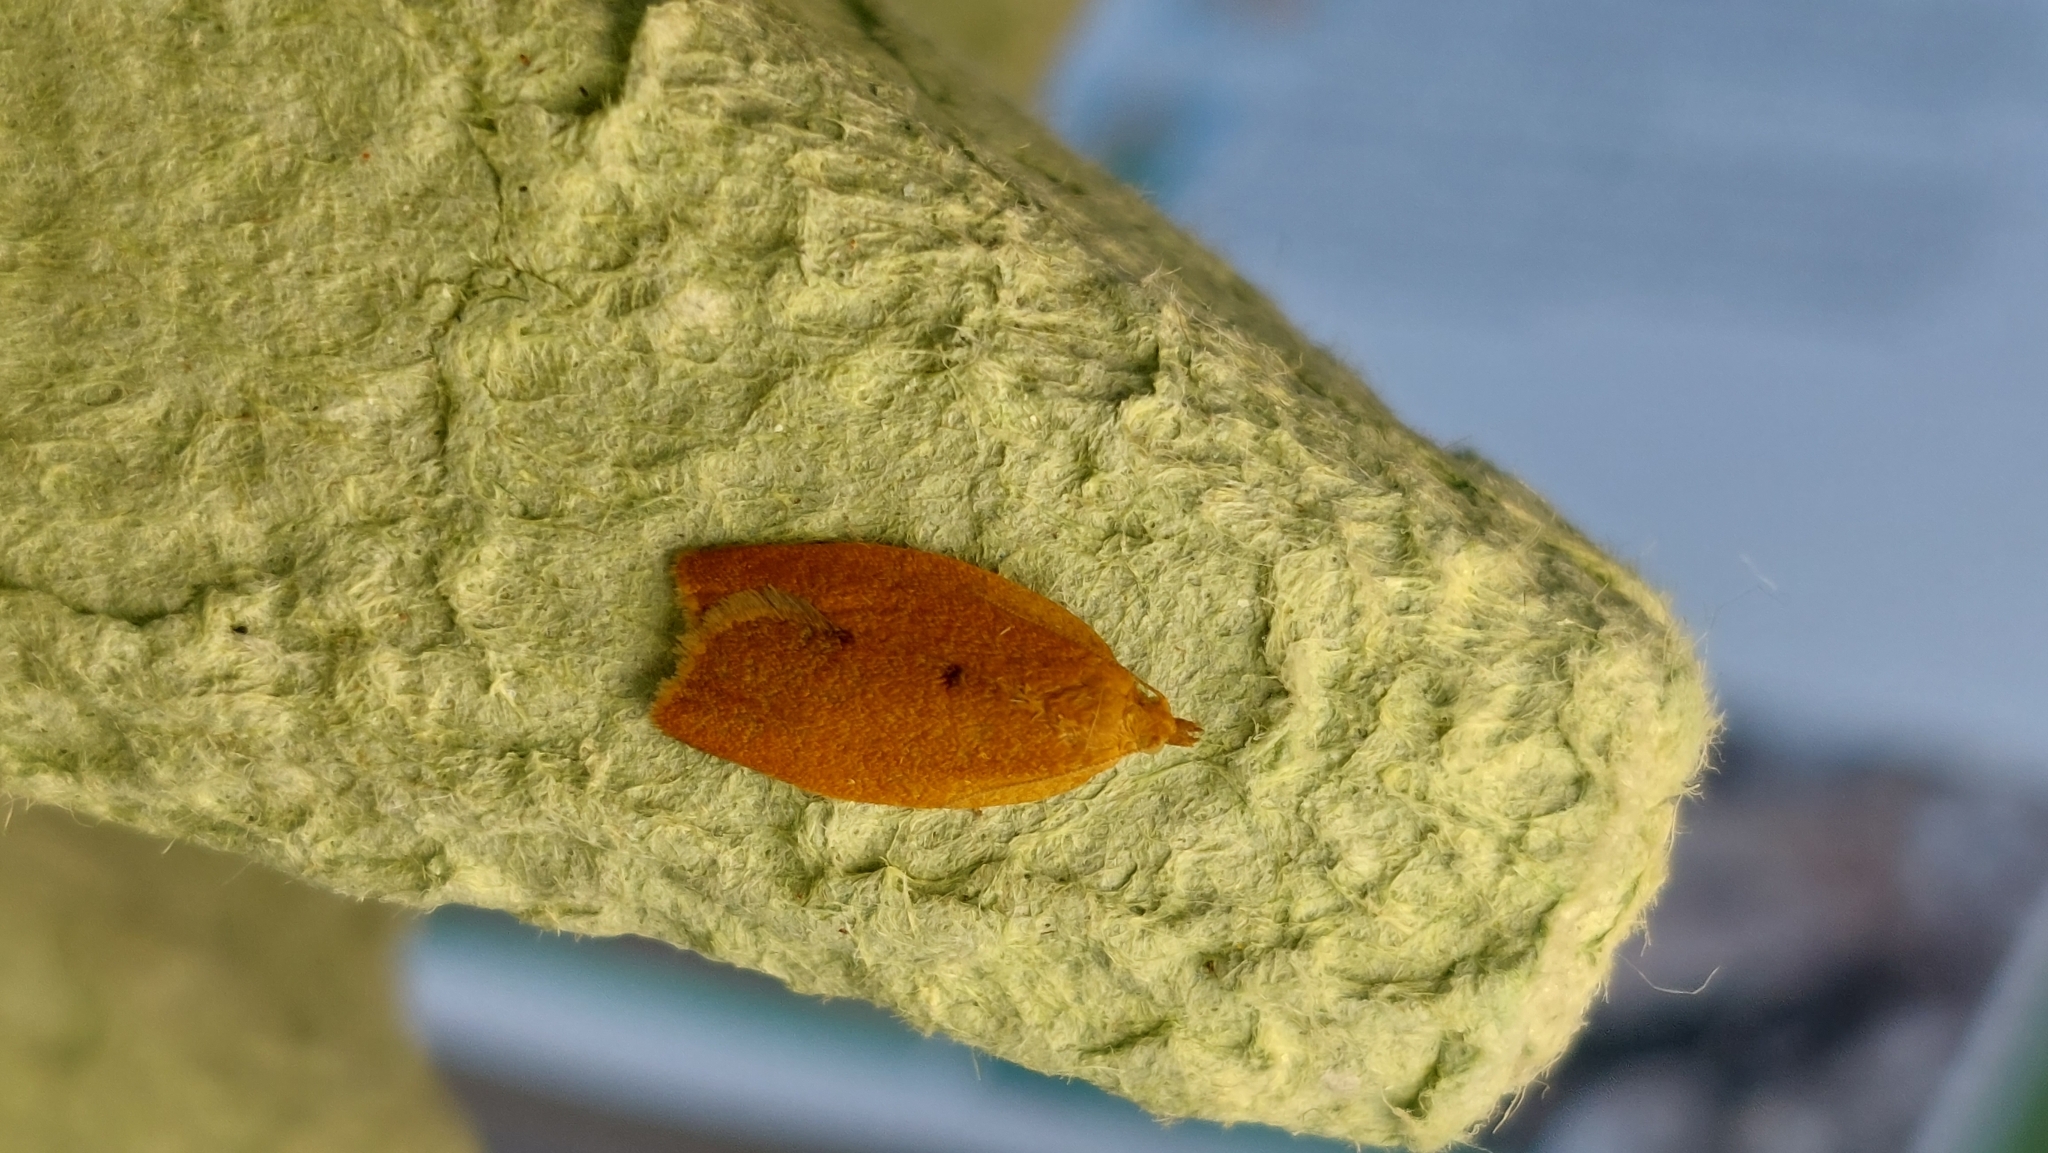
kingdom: Animalia
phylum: Arthropoda
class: Insecta
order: Lepidoptera
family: Tortricidae
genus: Clepsis
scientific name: Clepsis consimilana
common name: Privet tortrix
